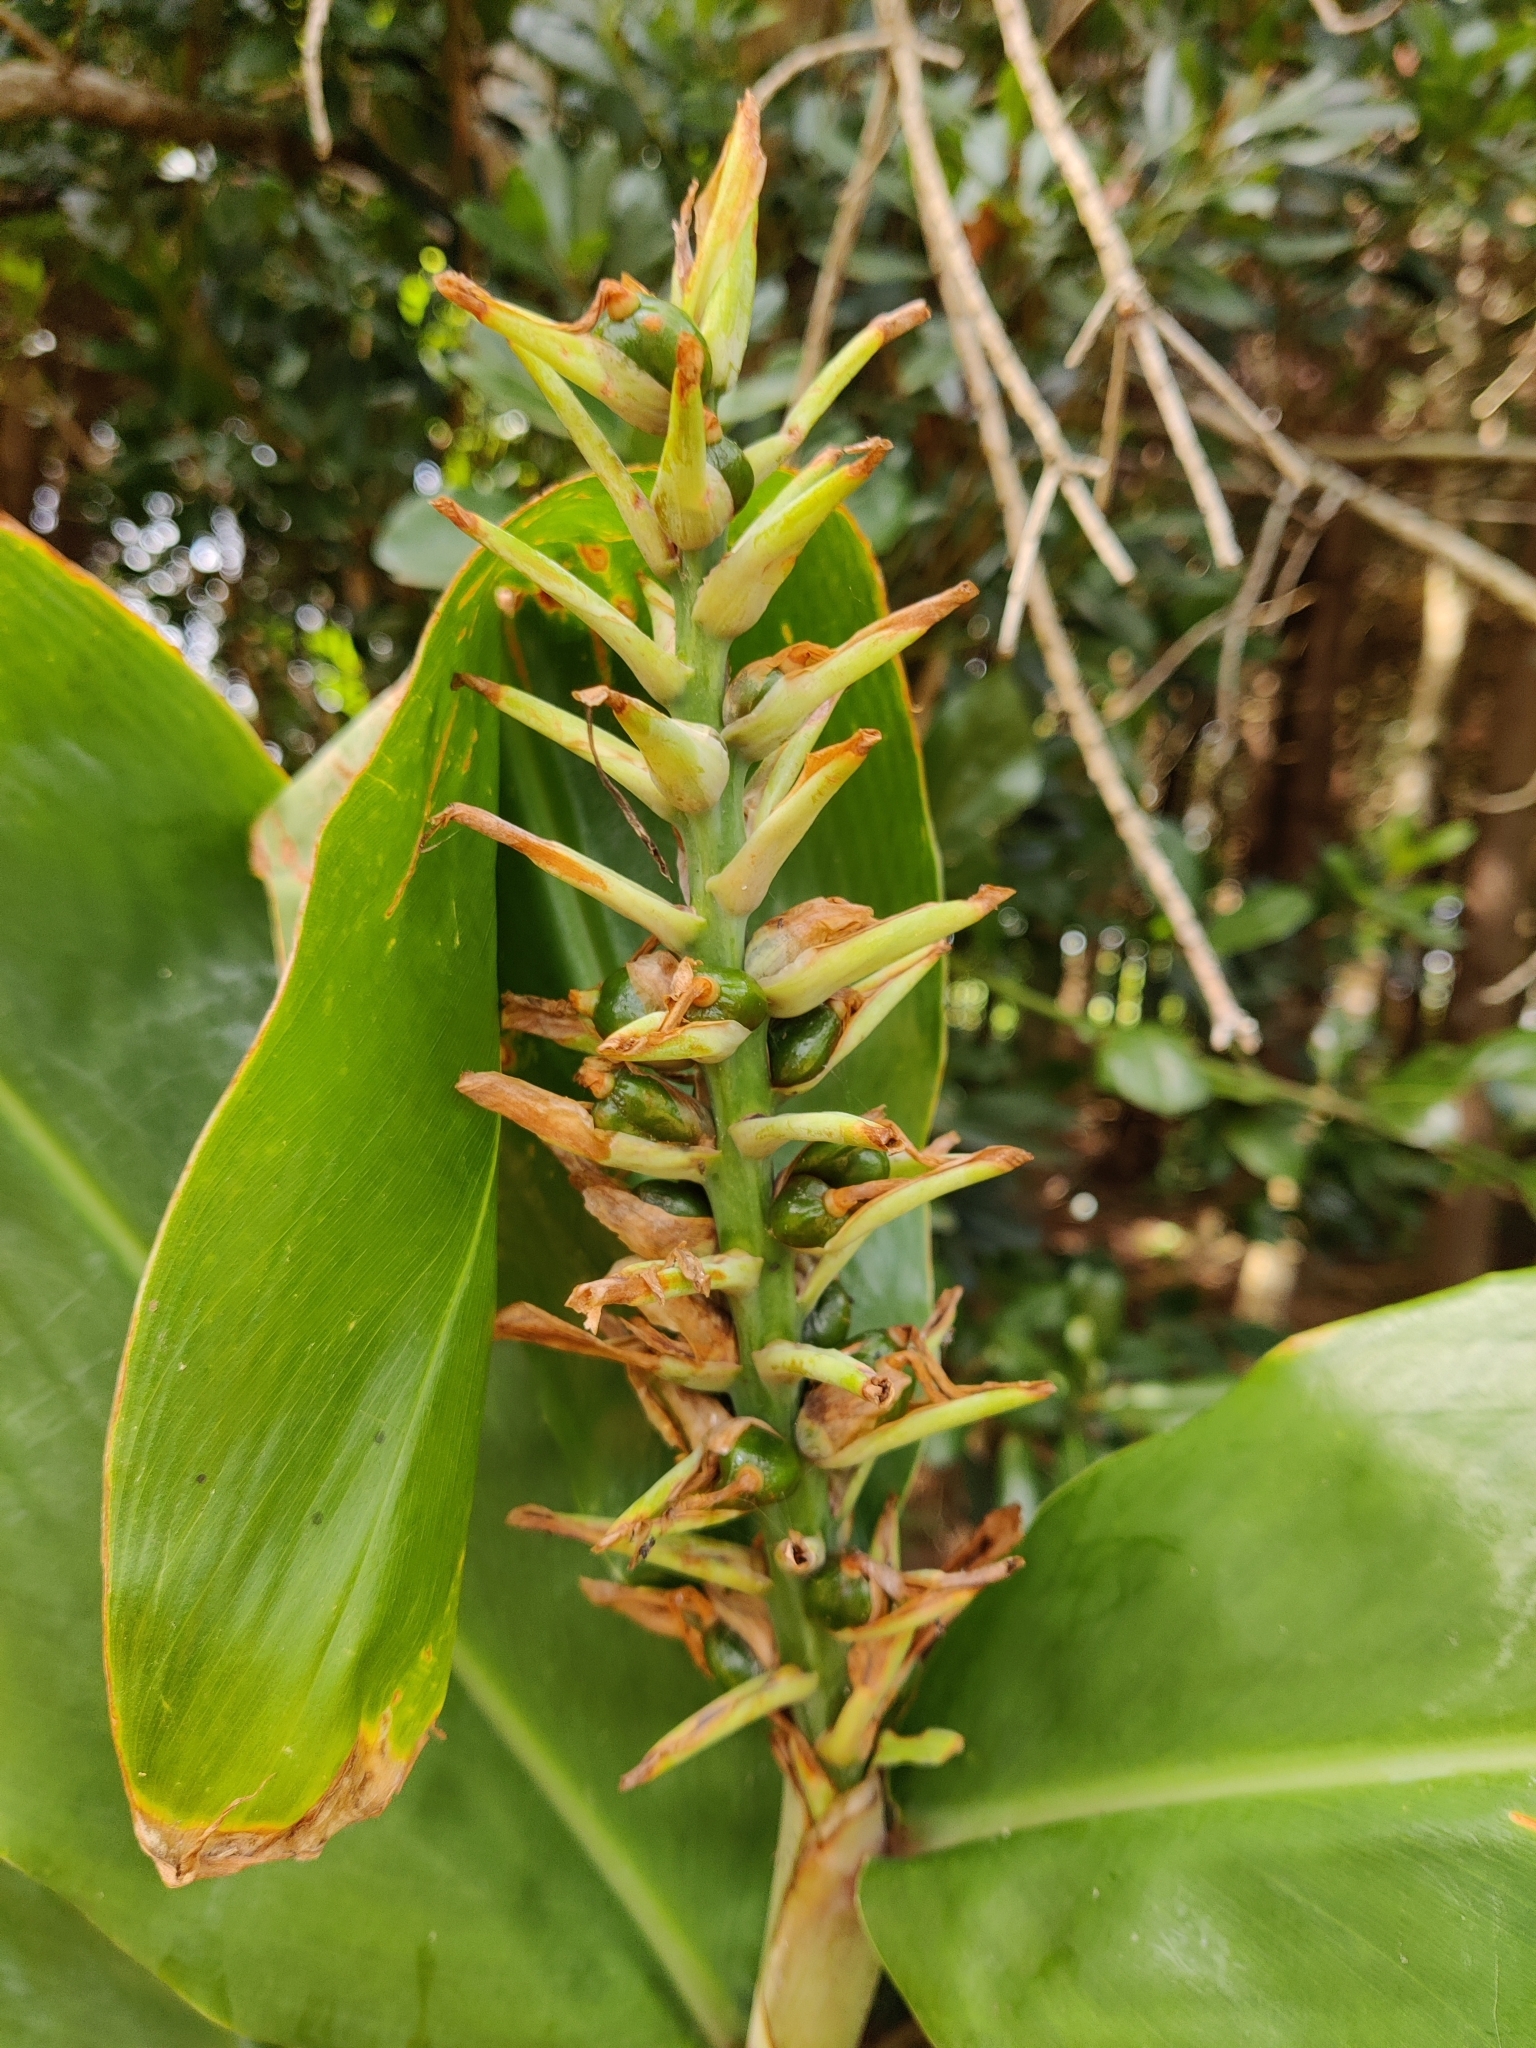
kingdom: Plantae
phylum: Tracheophyta
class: Liliopsida
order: Zingiberales
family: Zingiberaceae
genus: Hedychium
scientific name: Hedychium gardnerianum
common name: Himalayan ginger
